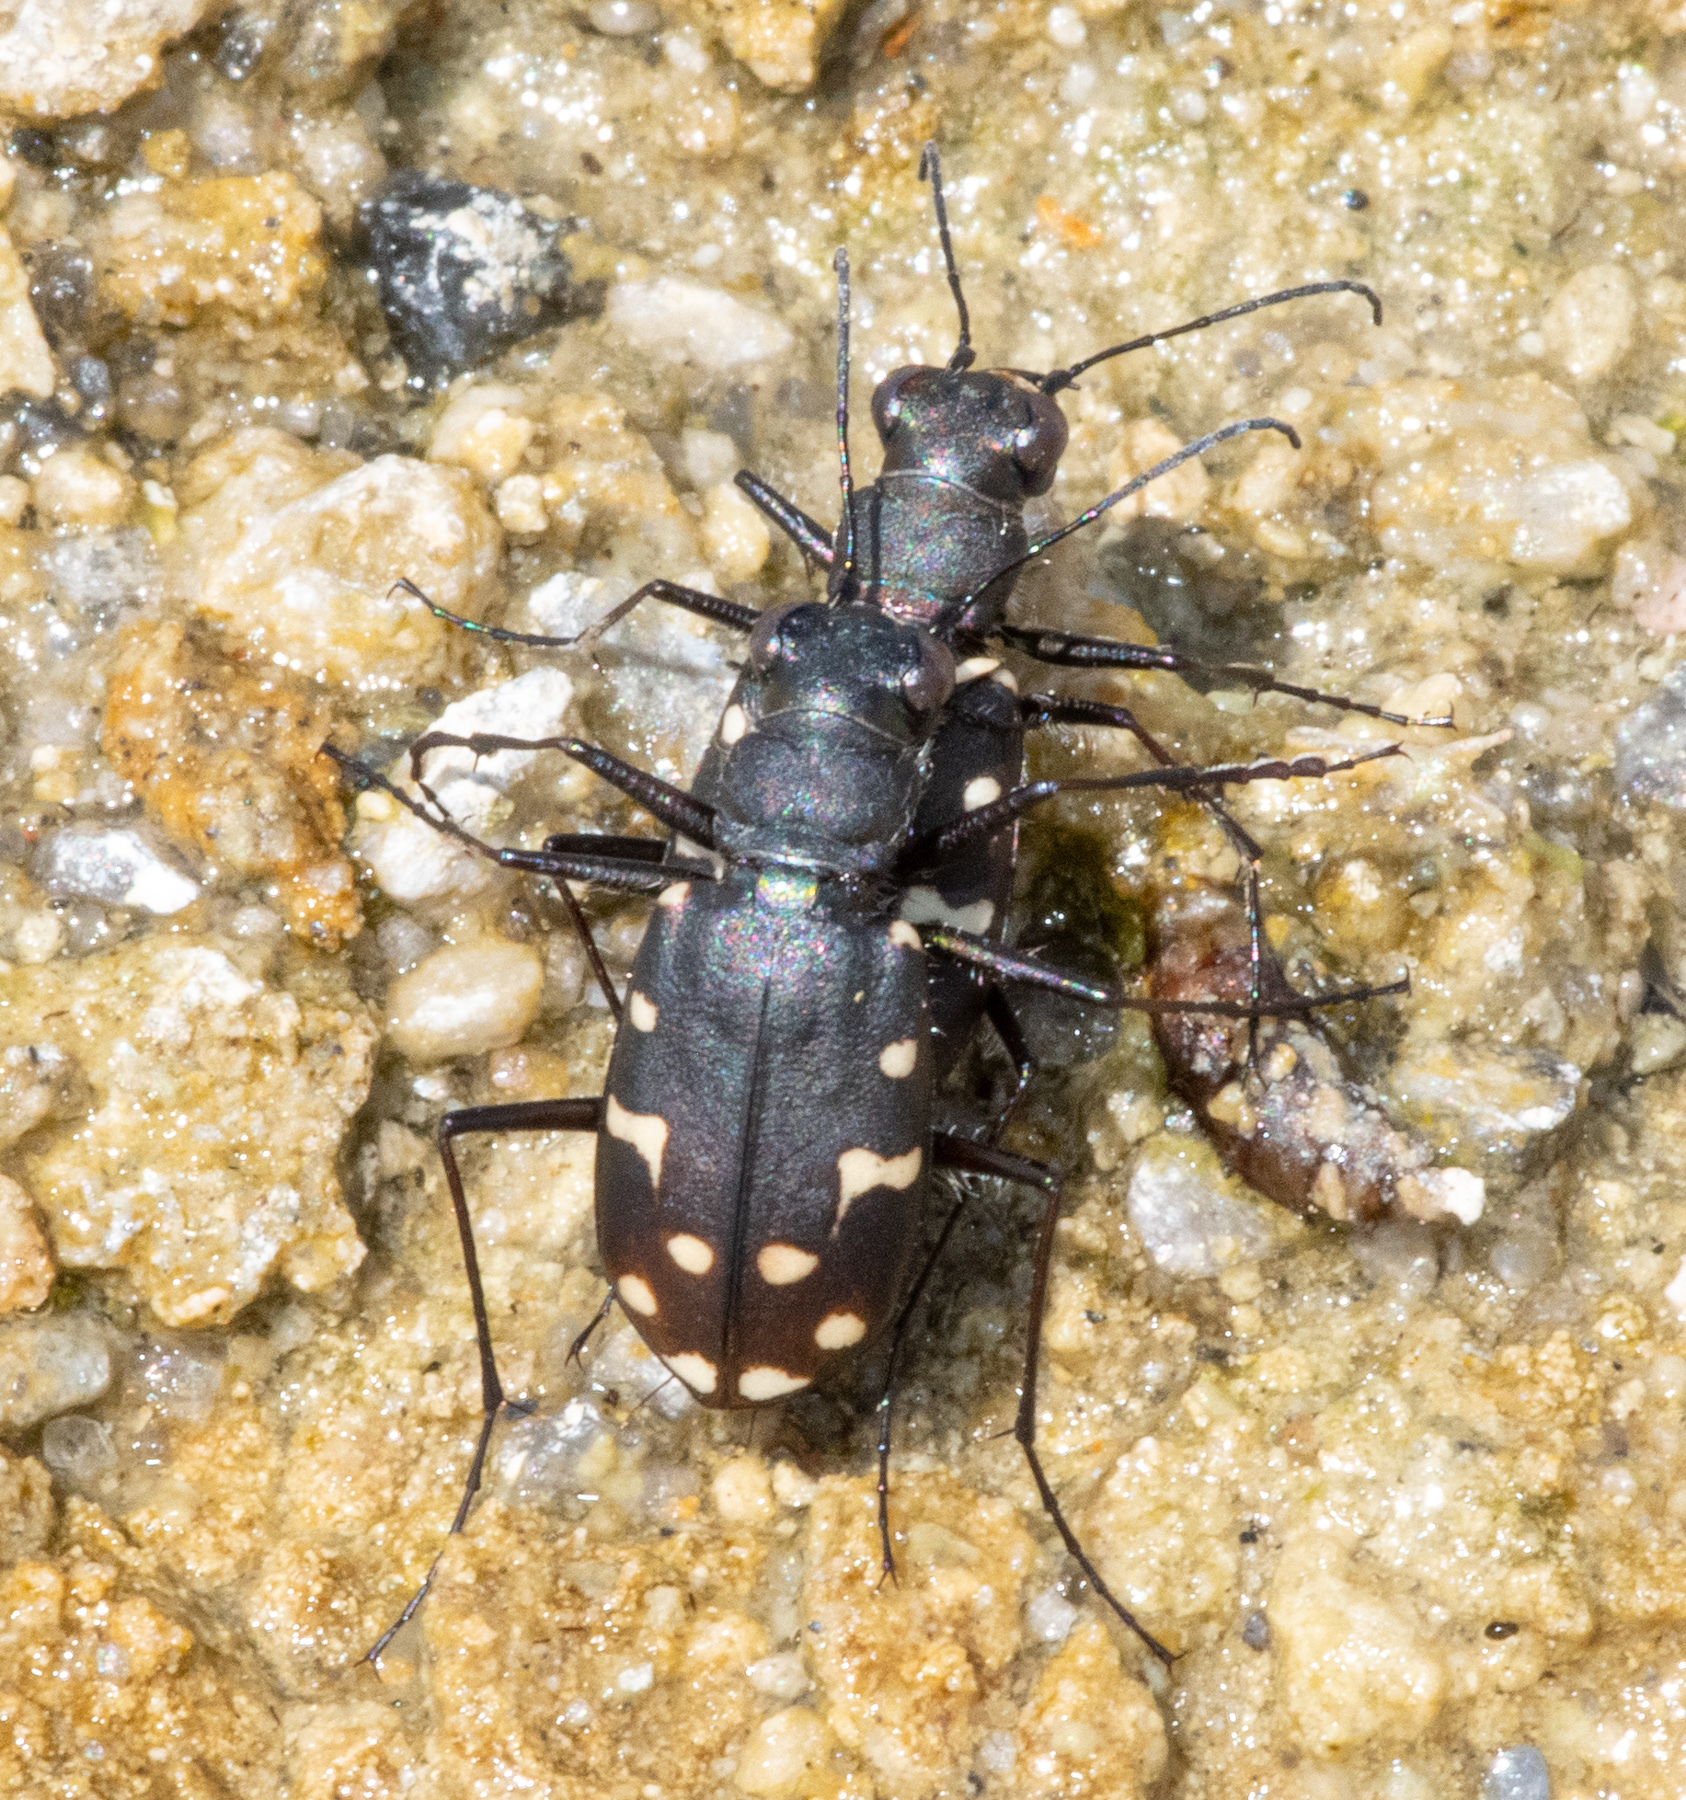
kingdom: Animalia
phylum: Arthropoda
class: Insecta
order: Coleoptera
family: Carabidae
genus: Cicindela
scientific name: Cicindela oregona
